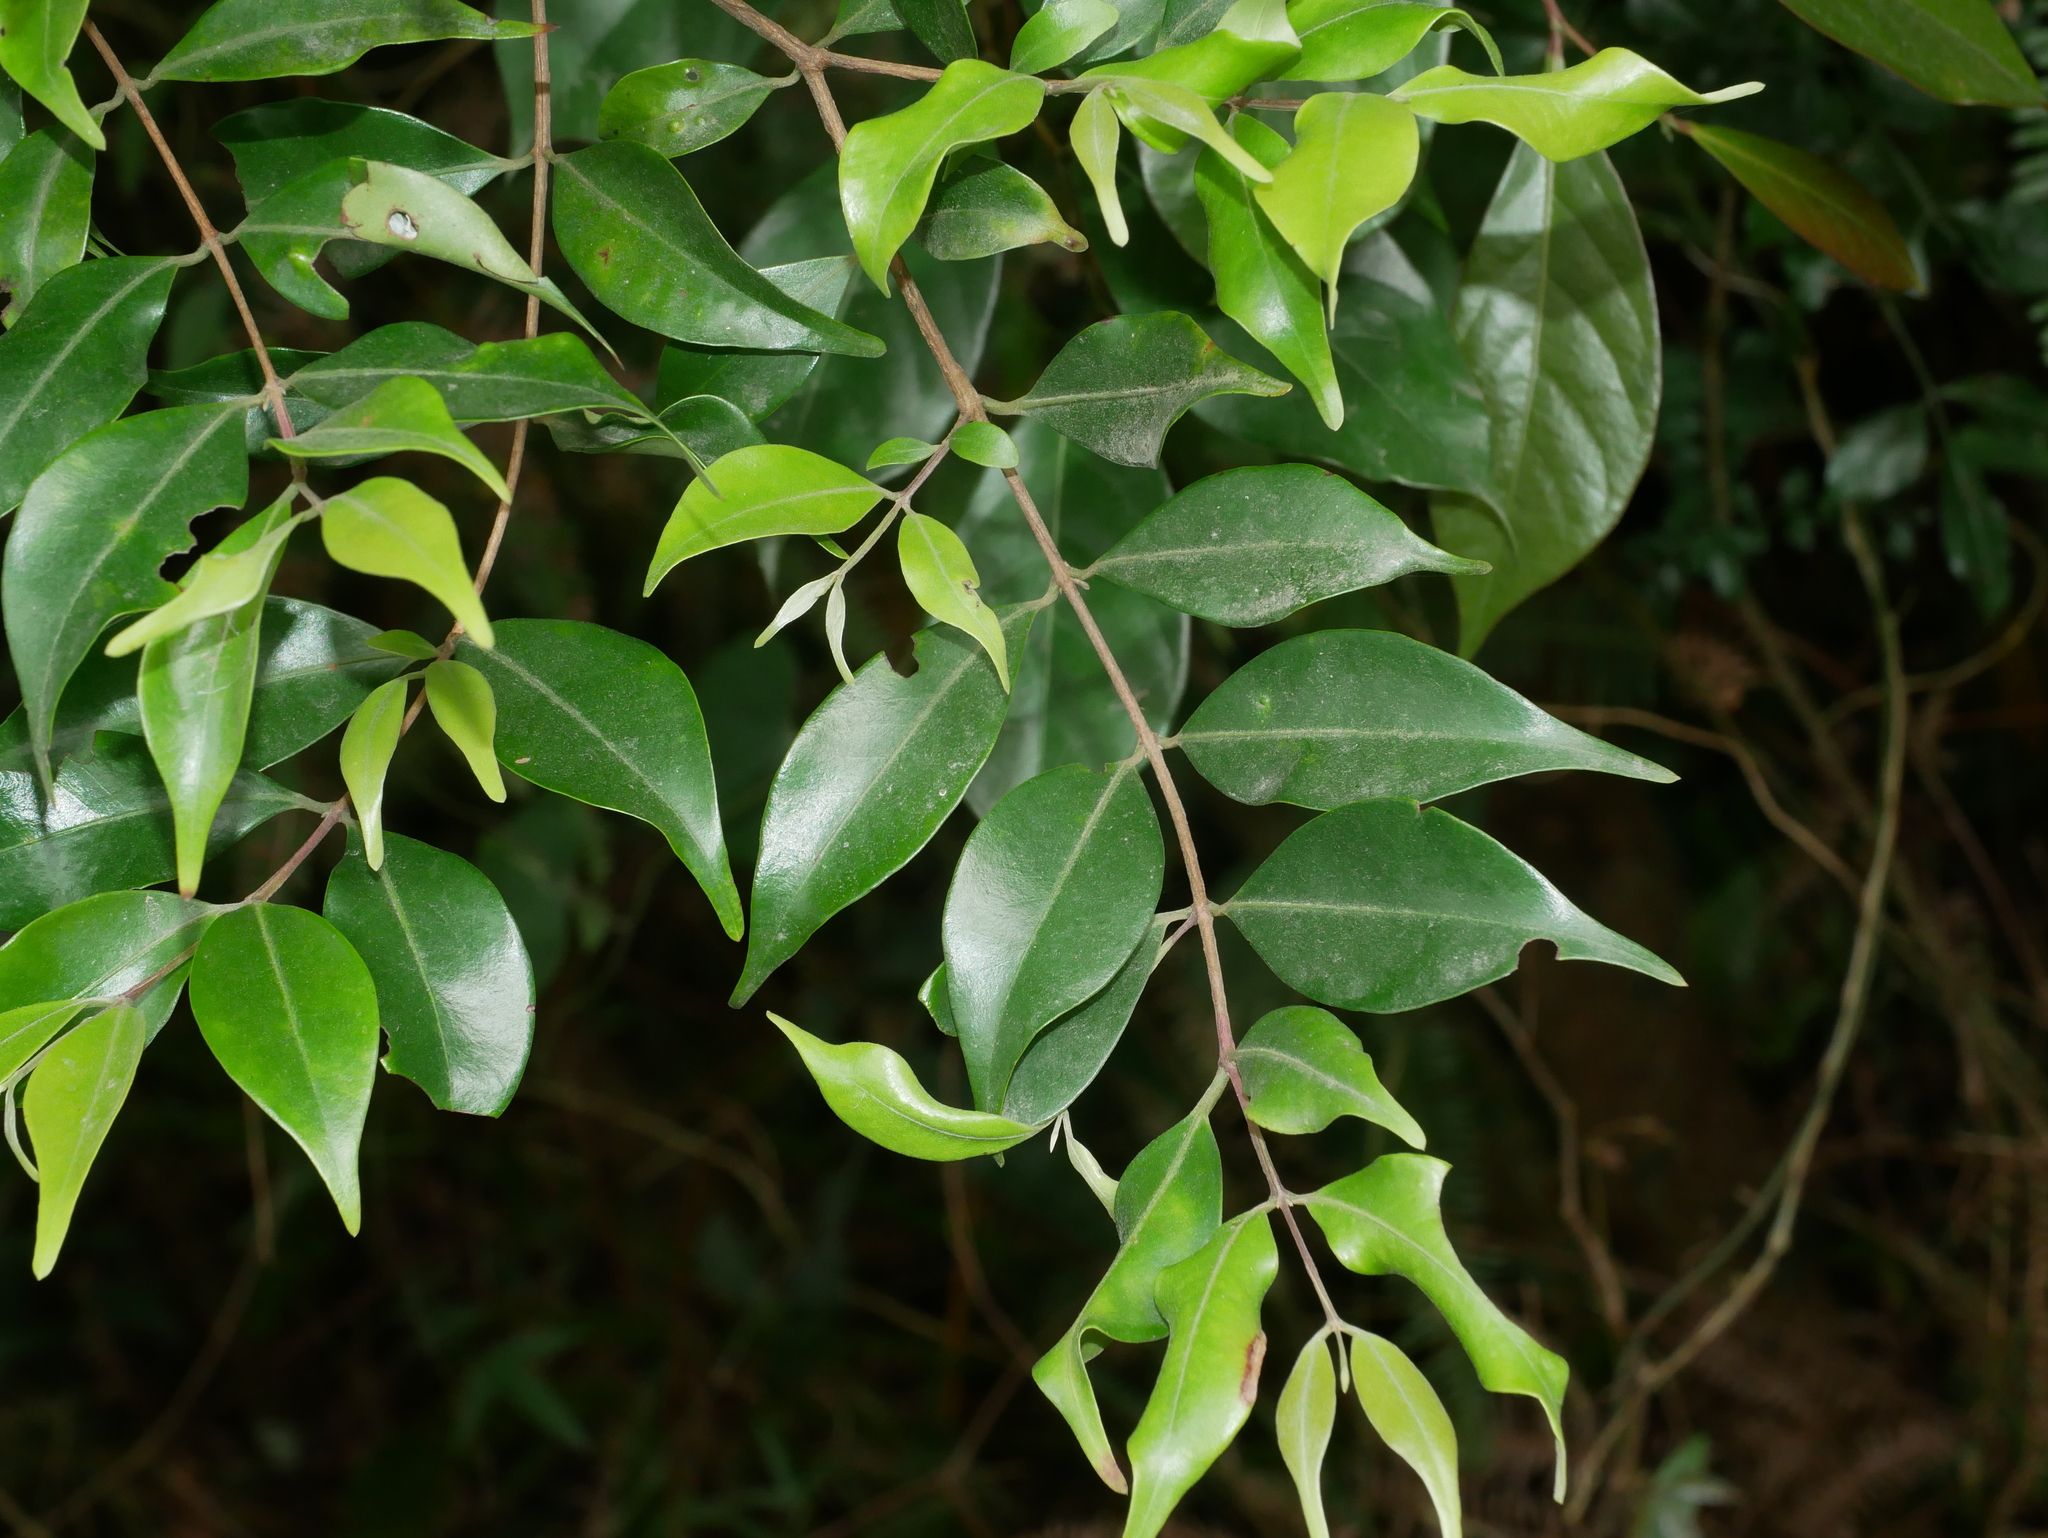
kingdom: Plantae
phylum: Tracheophyta
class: Magnoliopsida
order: Myrtales
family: Myrtaceae
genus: Syzygium
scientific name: Syzygium acuminatissimum
